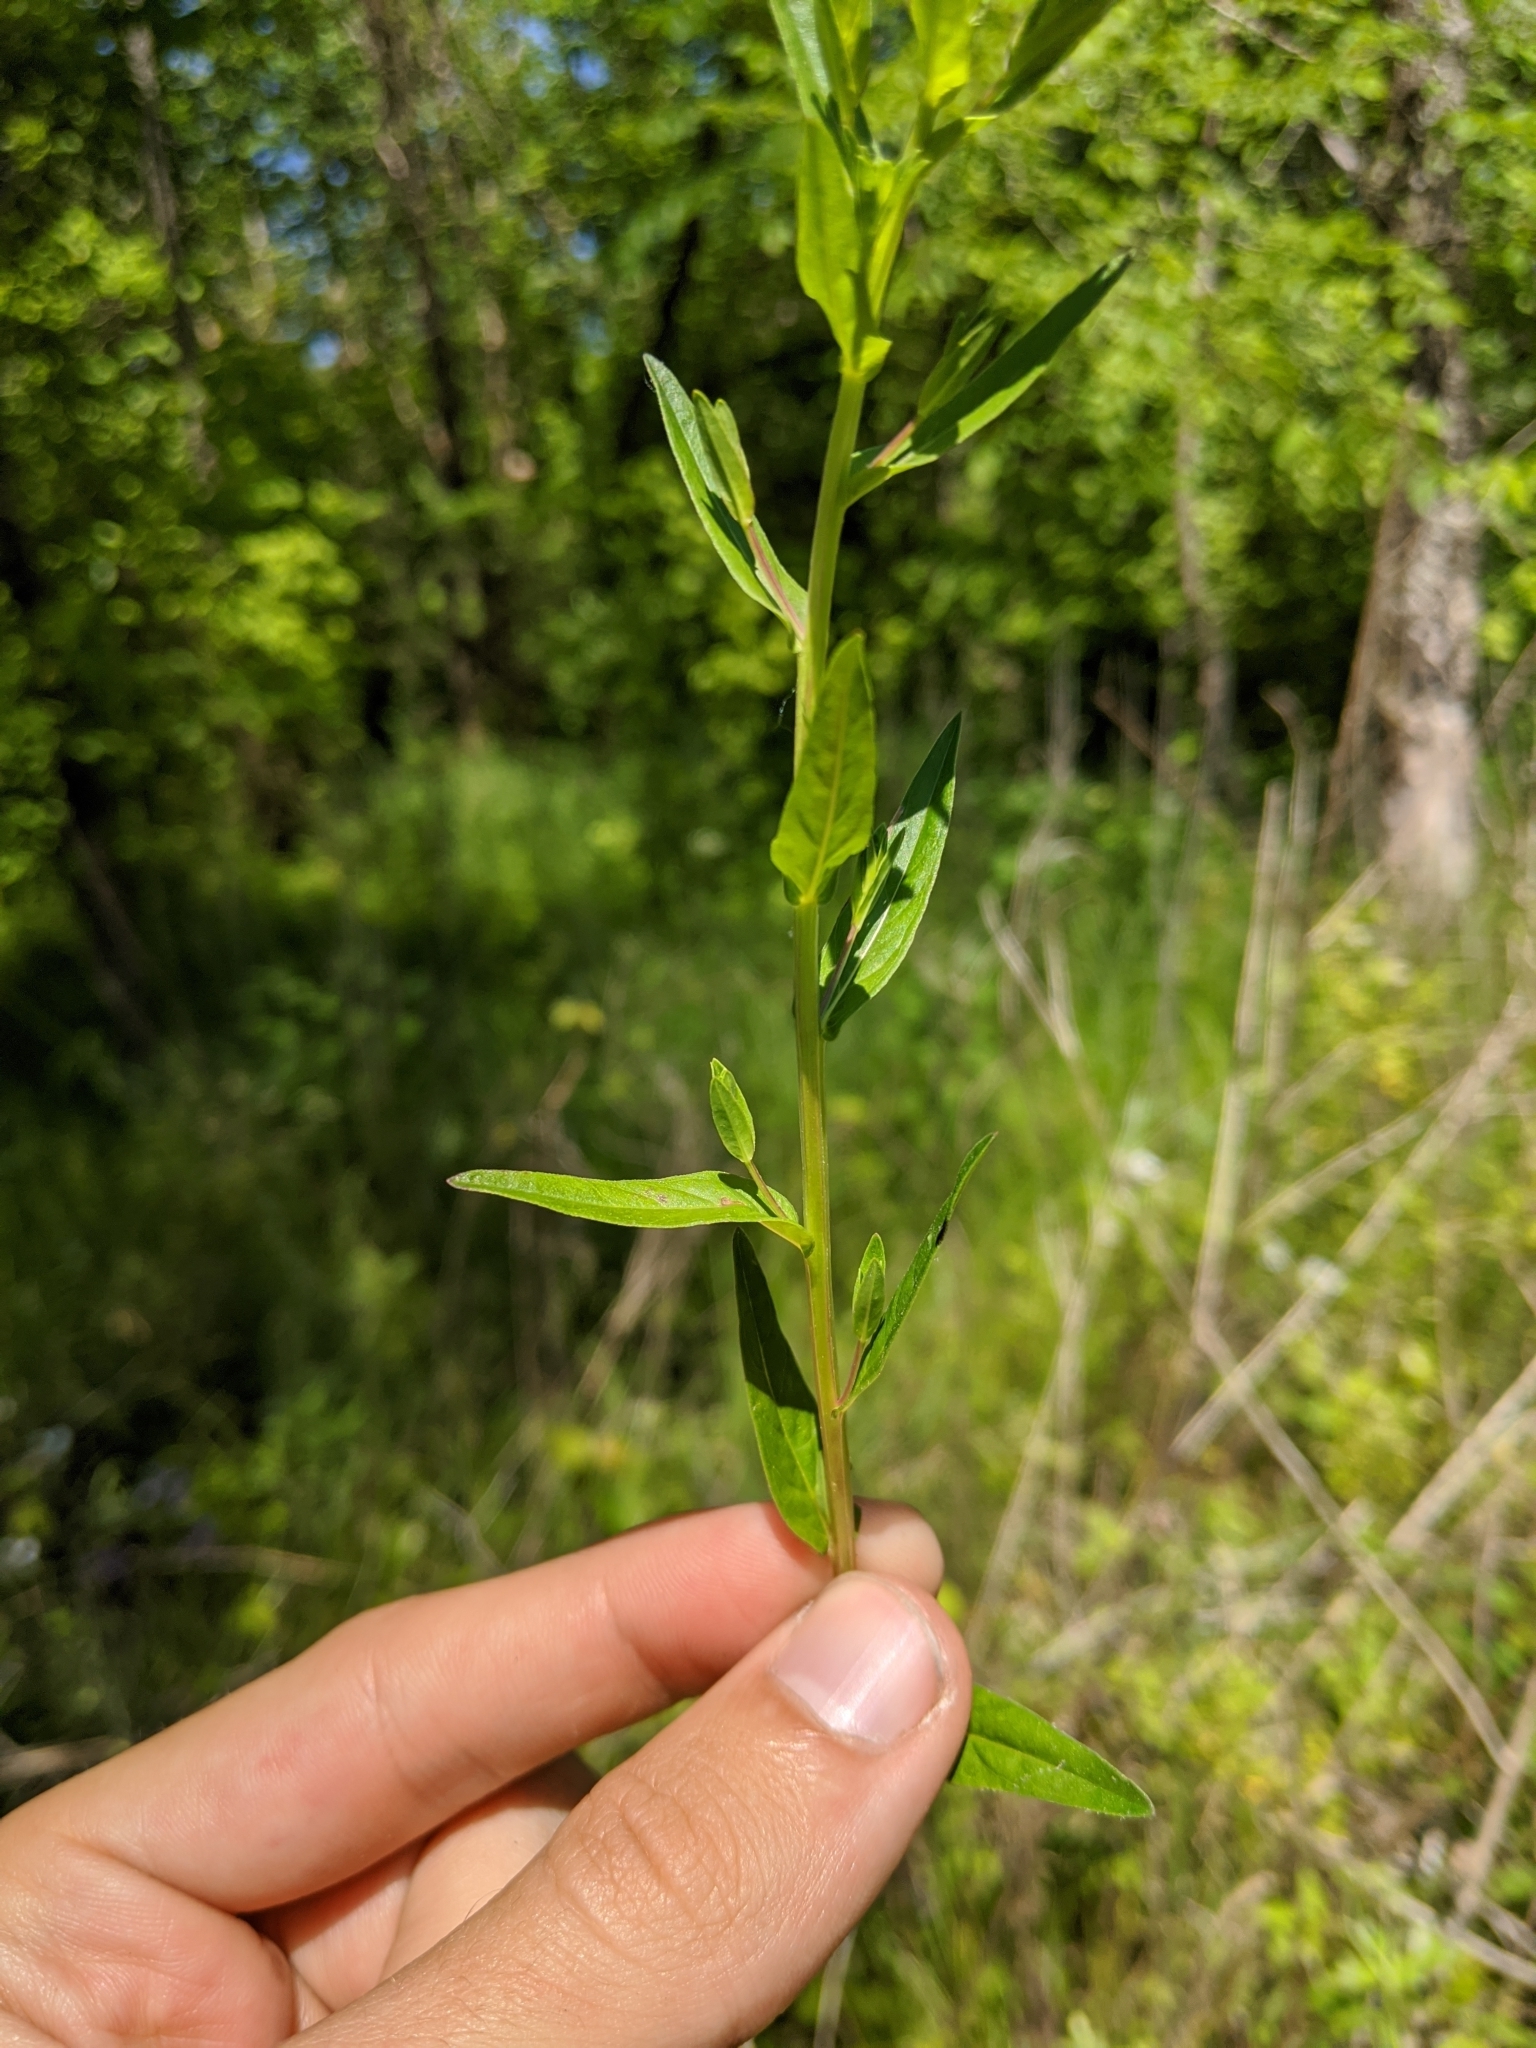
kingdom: Plantae
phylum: Tracheophyta
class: Magnoliopsida
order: Myrtales
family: Lythraceae
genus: Lythrum
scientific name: Lythrum alatum
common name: Winged loosestrife
